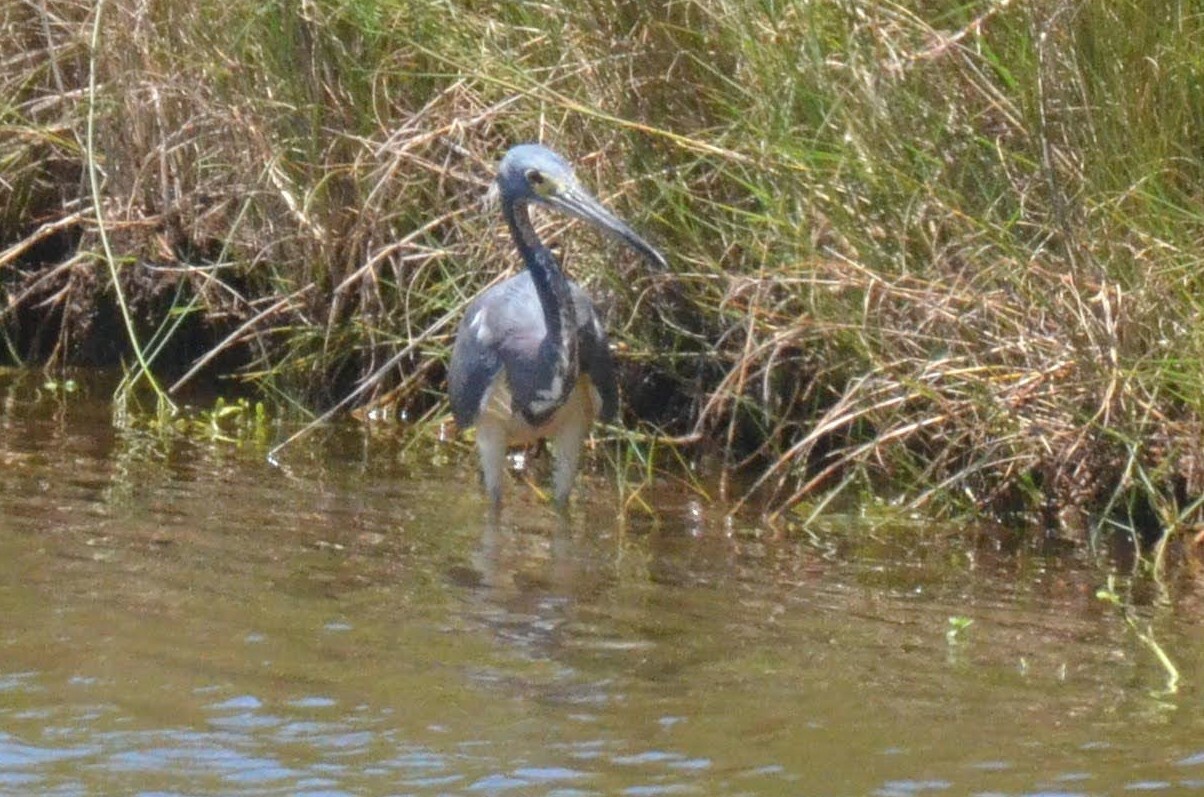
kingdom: Animalia
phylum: Chordata
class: Aves
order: Pelecaniformes
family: Ardeidae
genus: Egretta
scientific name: Egretta tricolor
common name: Tricolored heron
